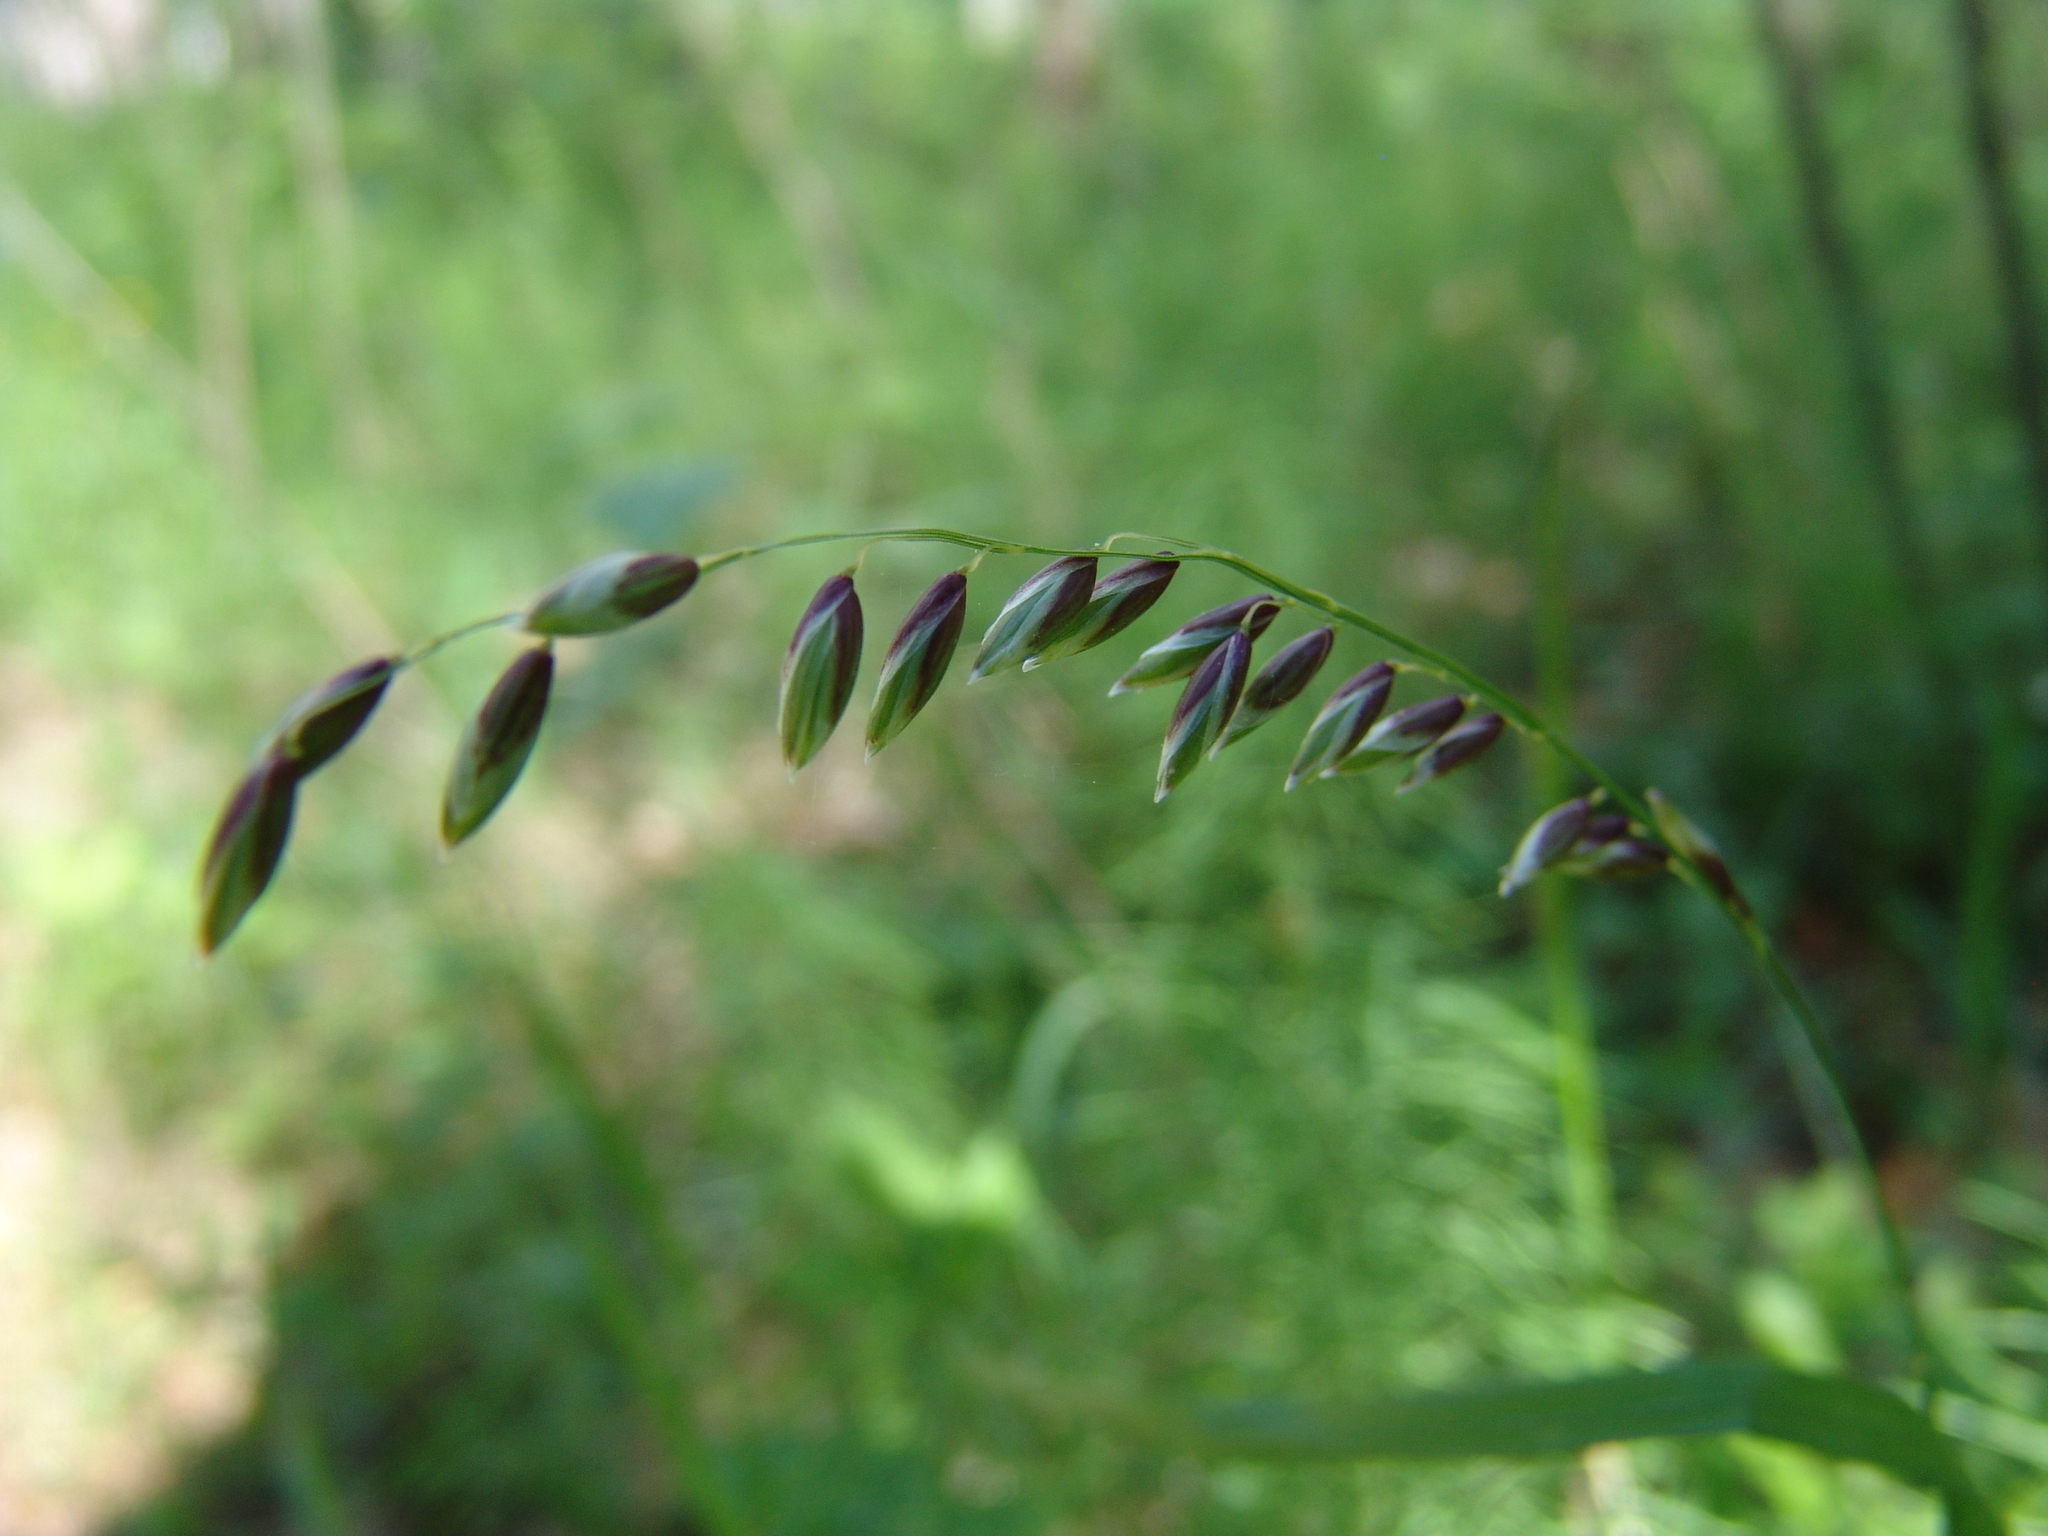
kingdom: Plantae
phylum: Tracheophyta
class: Liliopsida
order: Poales
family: Poaceae
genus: Melica
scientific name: Melica nutans
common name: Mountain melick
